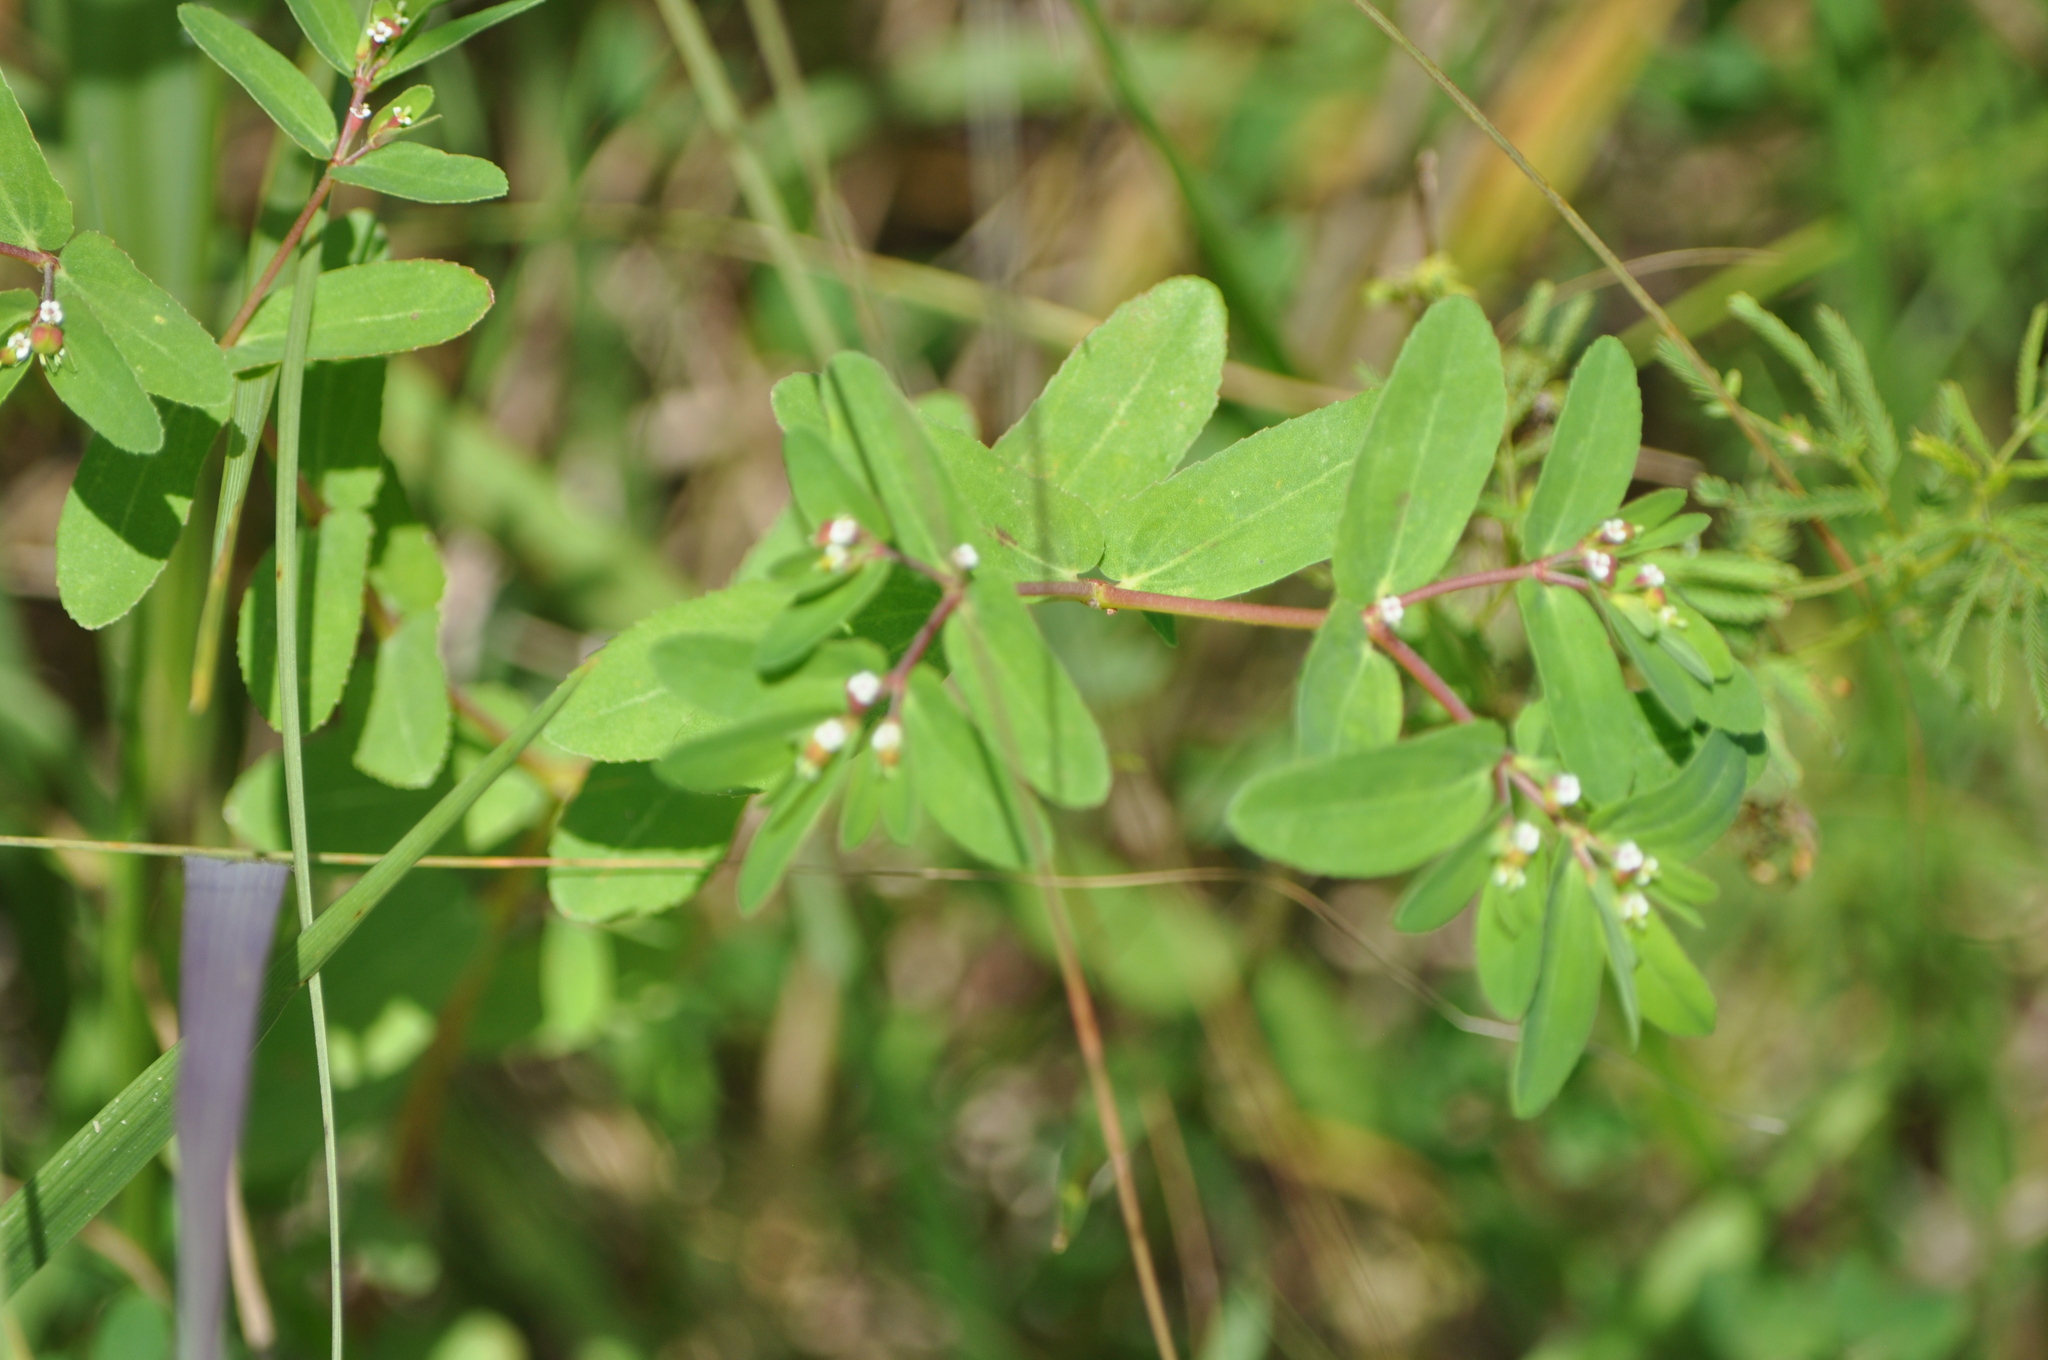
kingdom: Plantae
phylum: Tracheophyta
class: Magnoliopsida
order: Malpighiales
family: Euphorbiaceae
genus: Euphorbia
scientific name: Euphorbia nutans
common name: Eyebane
